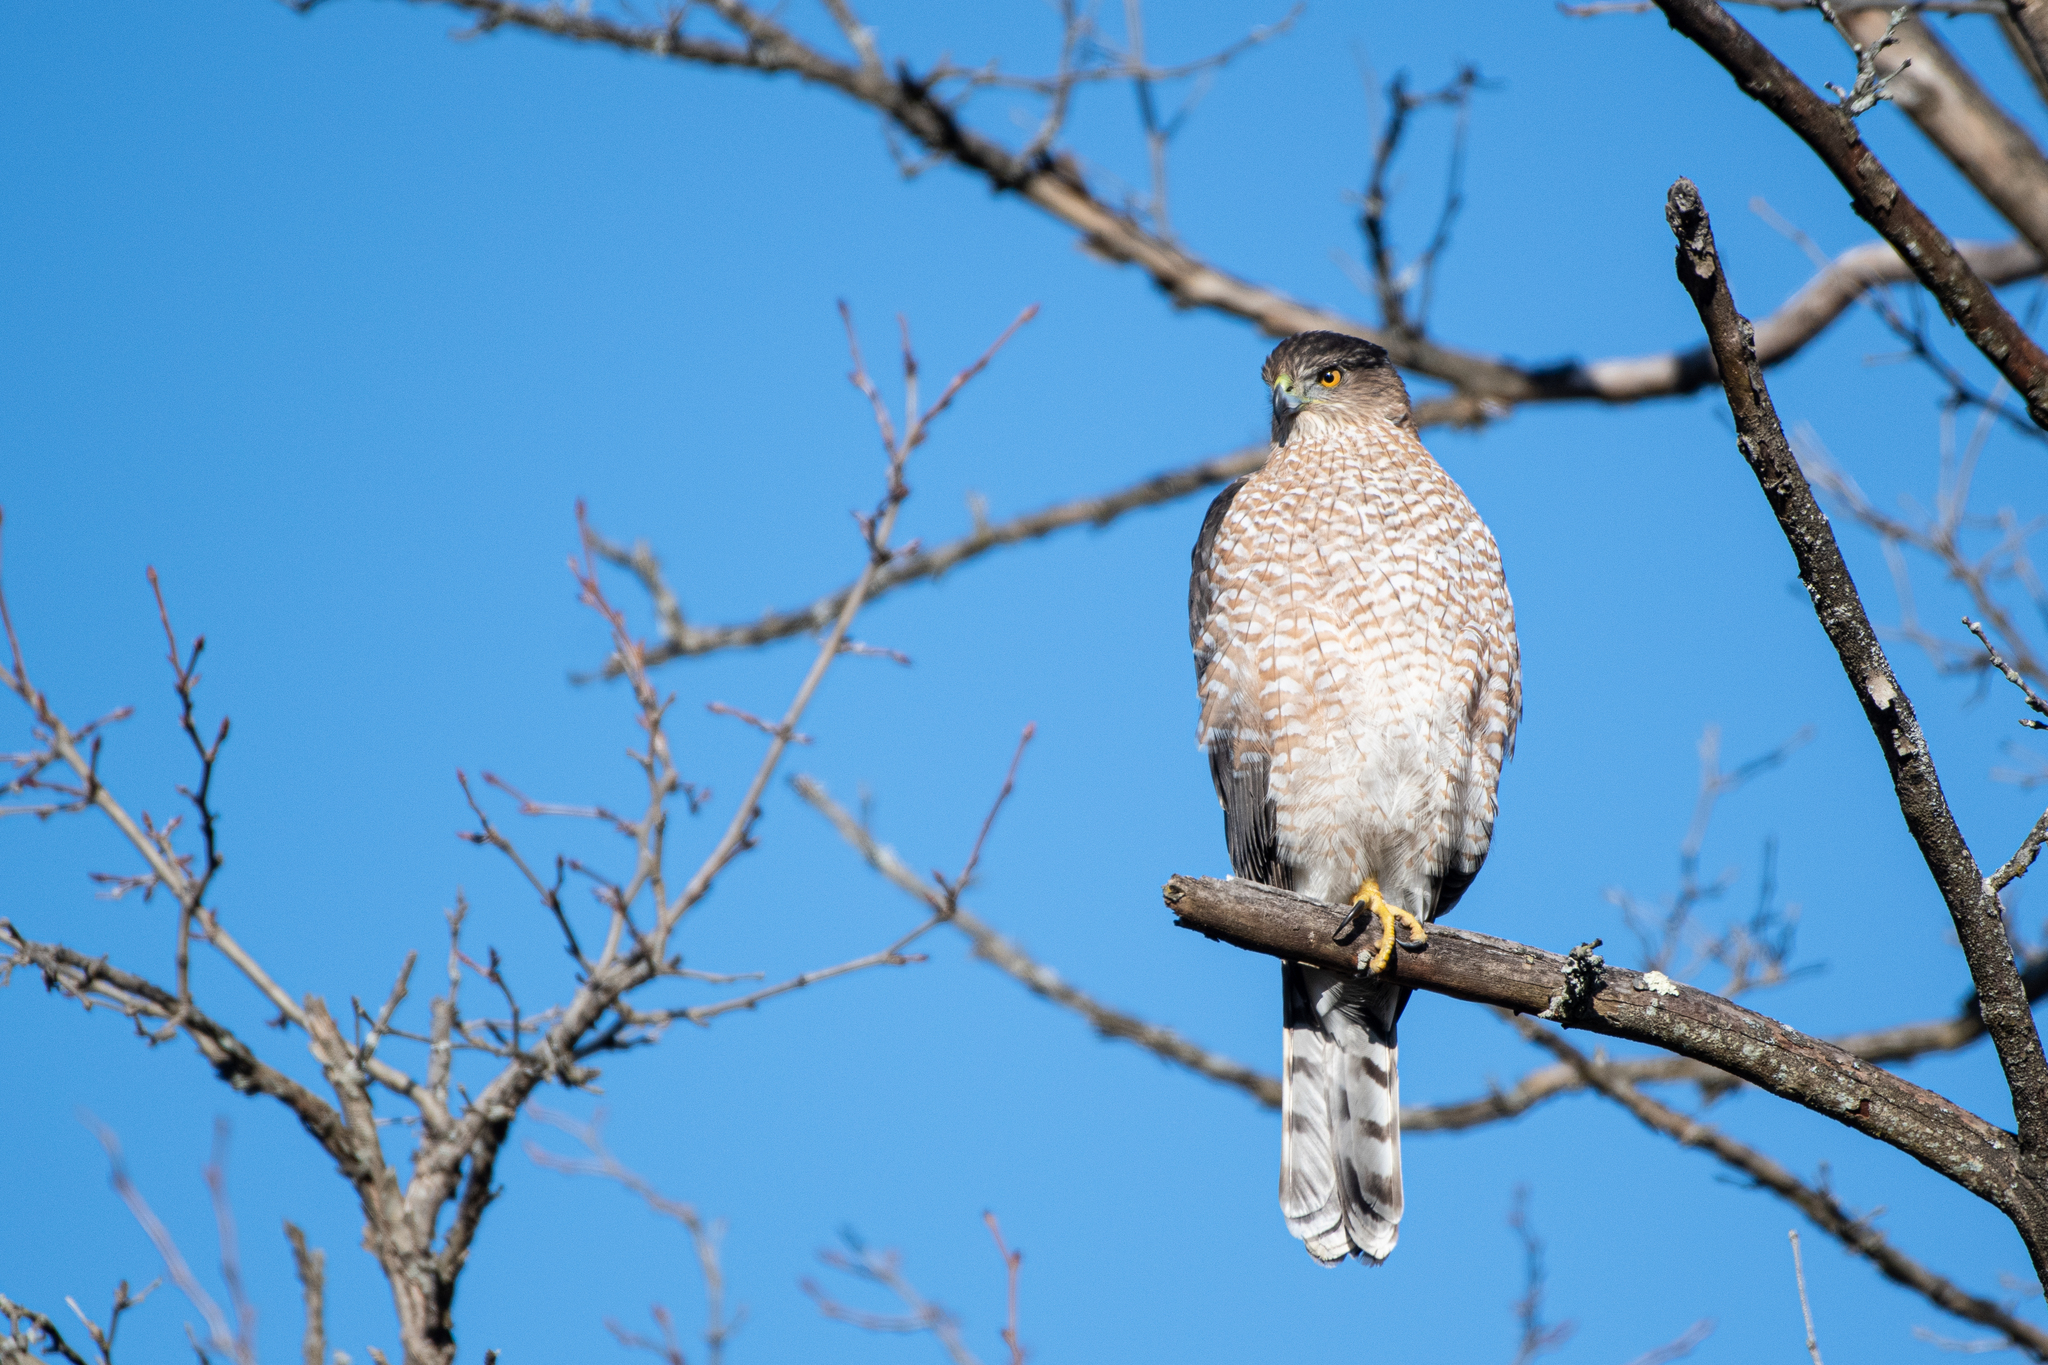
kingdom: Animalia
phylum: Chordata
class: Aves
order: Accipitriformes
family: Accipitridae
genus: Accipiter
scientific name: Accipiter cooperii
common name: Cooper's hawk
